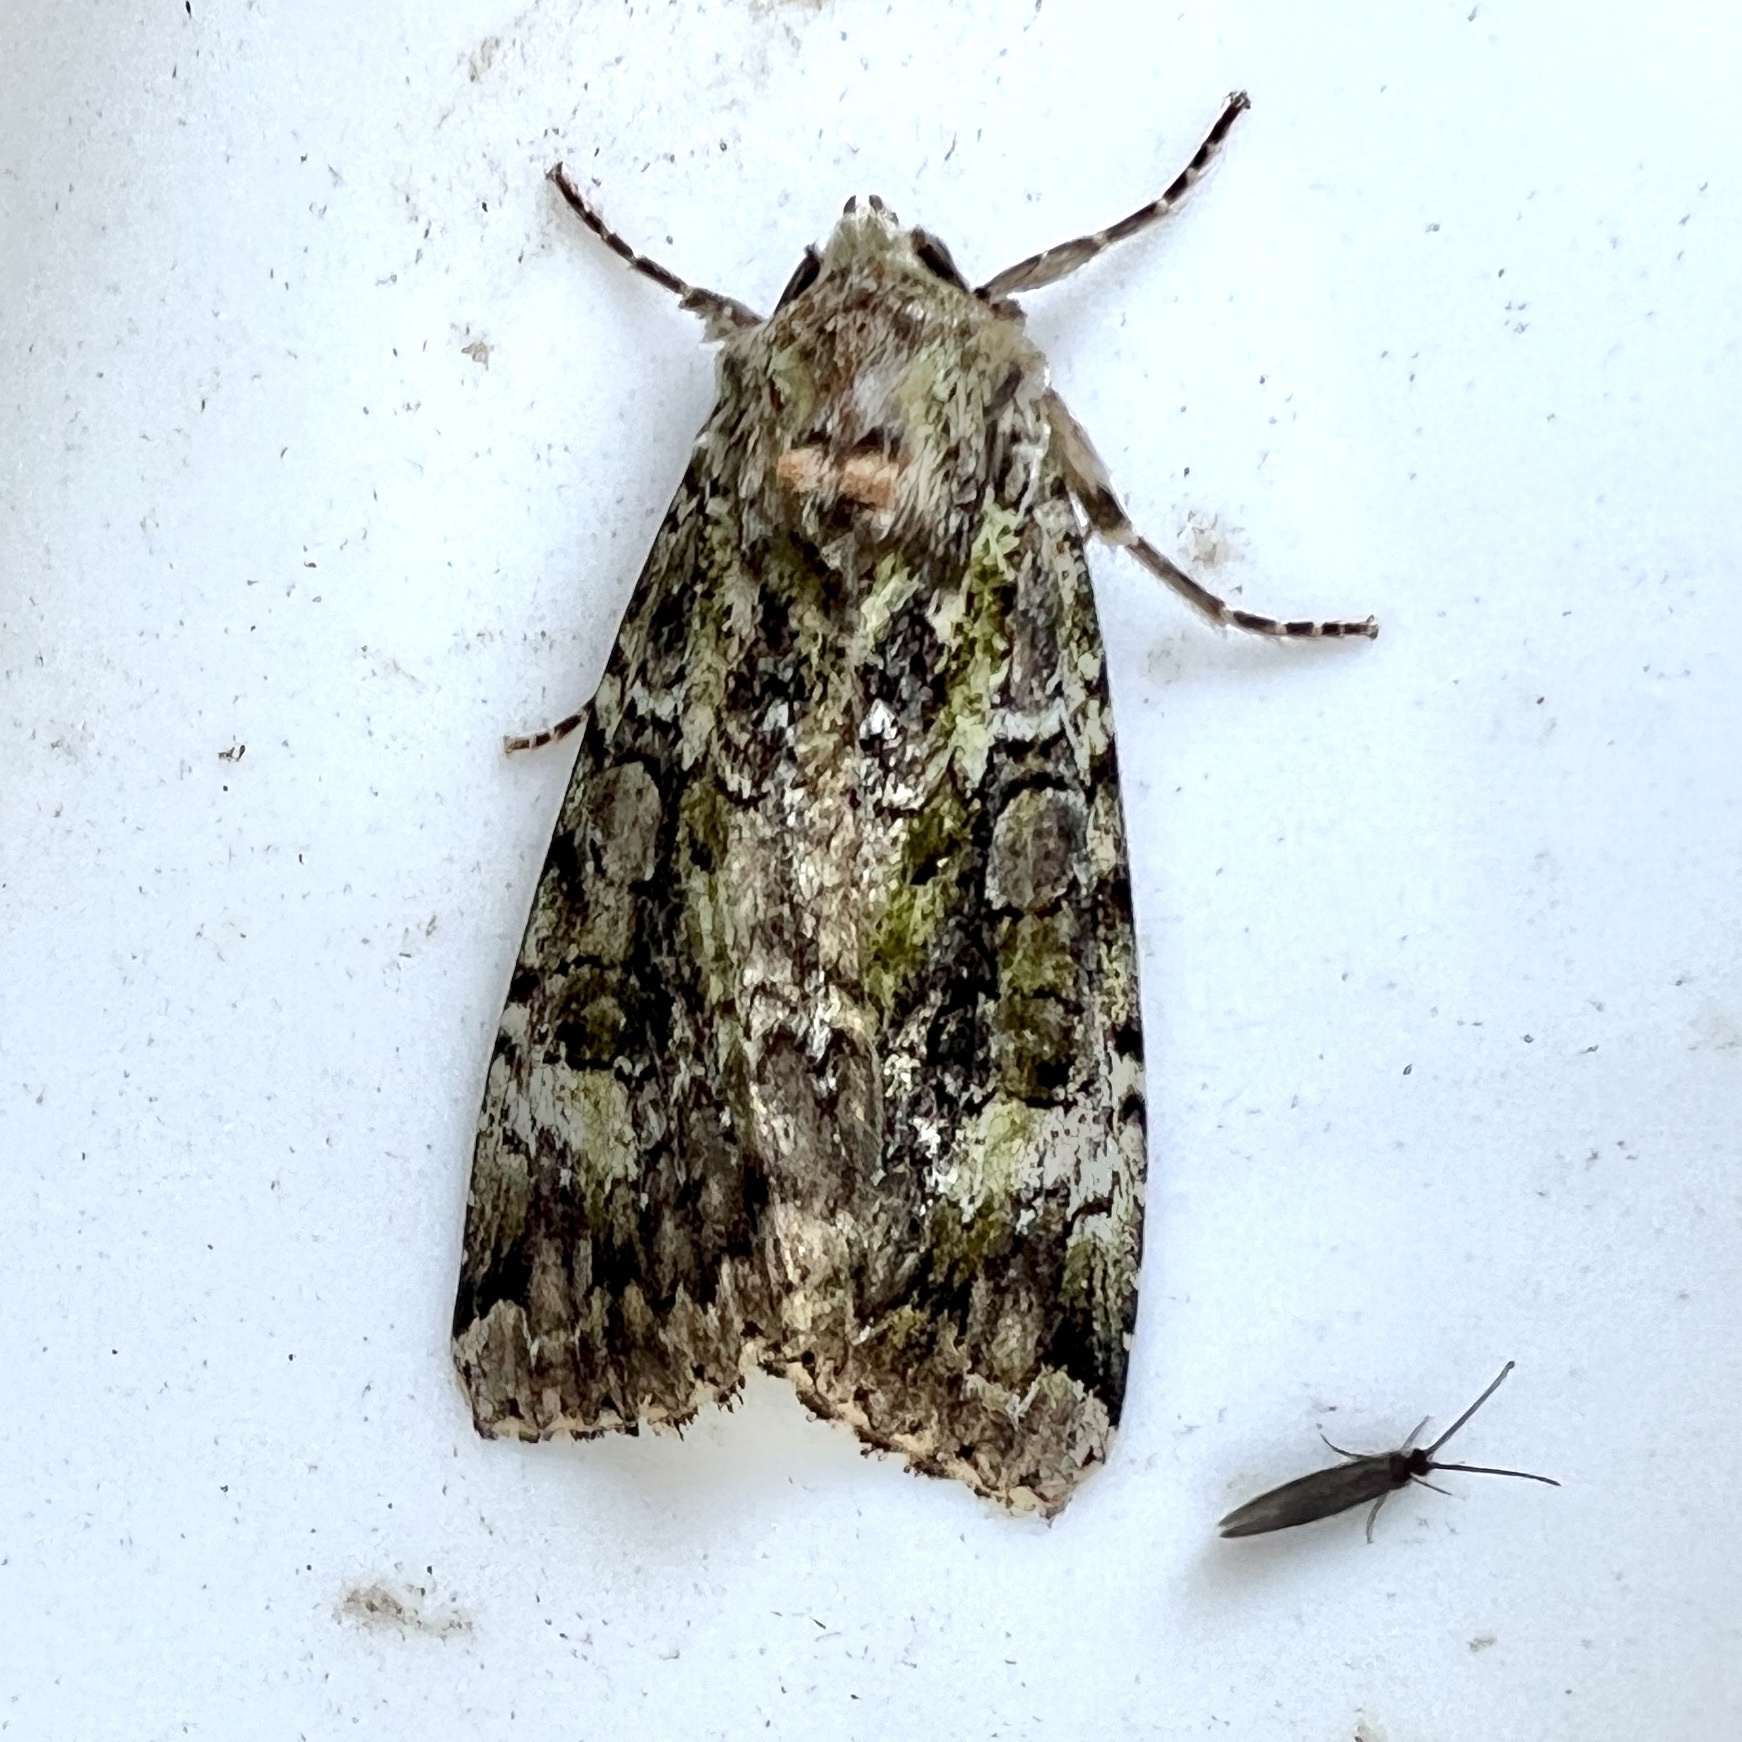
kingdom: Animalia
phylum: Arthropoda
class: Insecta
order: Lepidoptera
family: Noctuidae
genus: Anaplectoides
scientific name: Anaplectoides prasina
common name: Green arches
